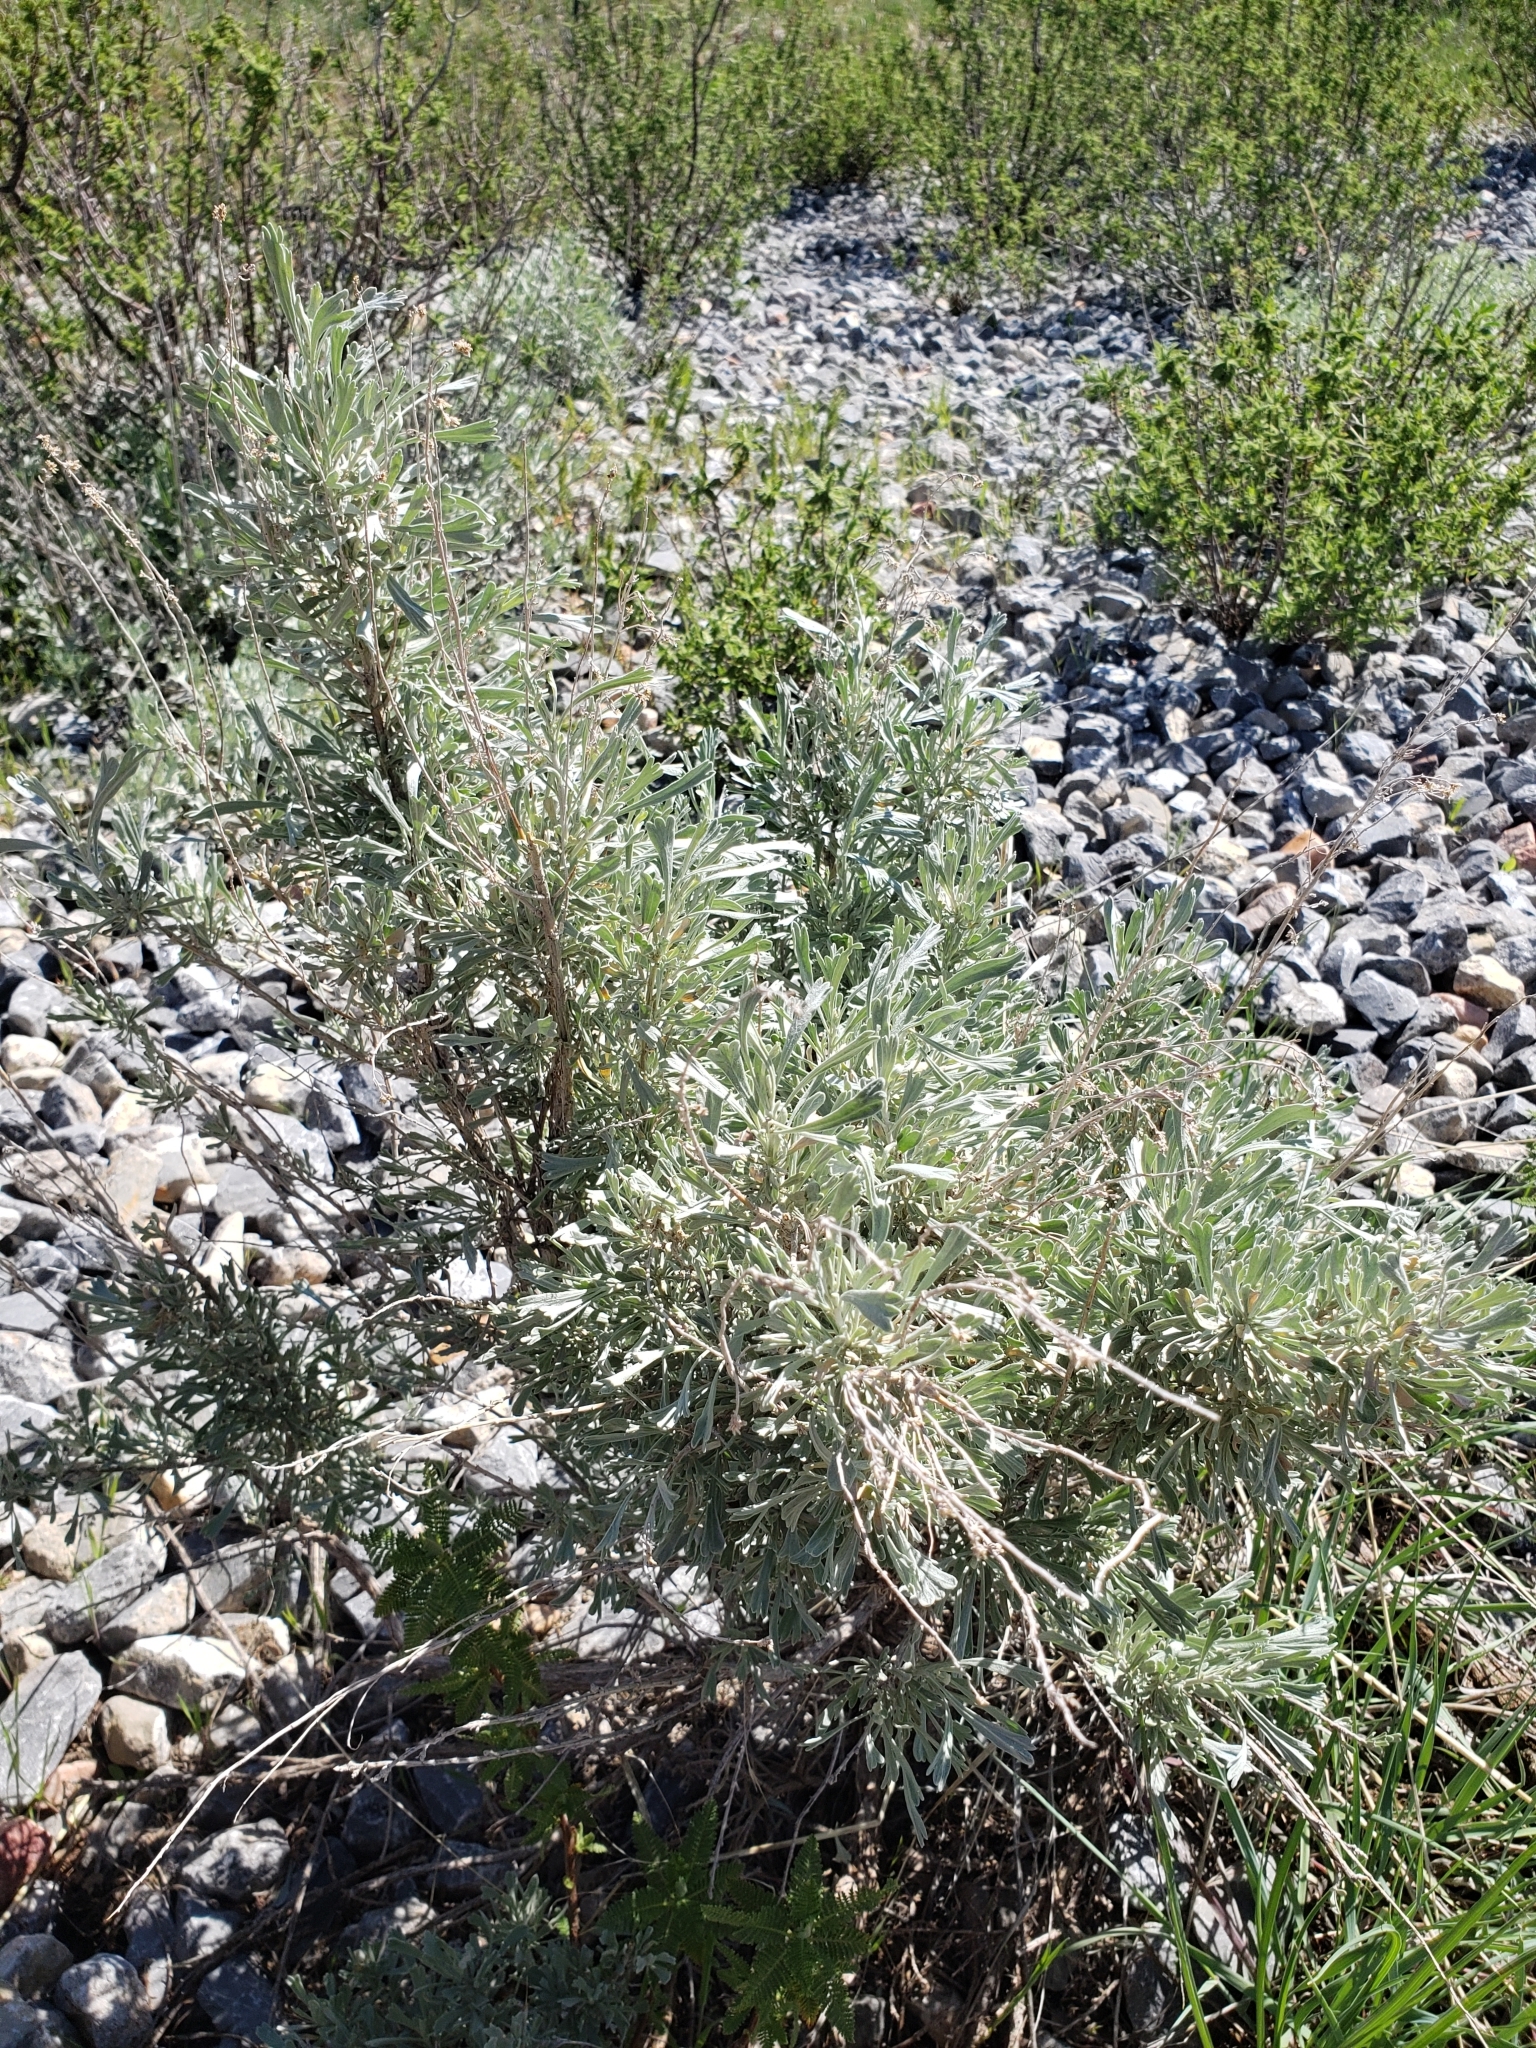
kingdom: Plantae
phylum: Tracheophyta
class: Magnoliopsida
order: Asterales
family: Asteraceae
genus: Artemisia
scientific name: Artemisia tridentata
